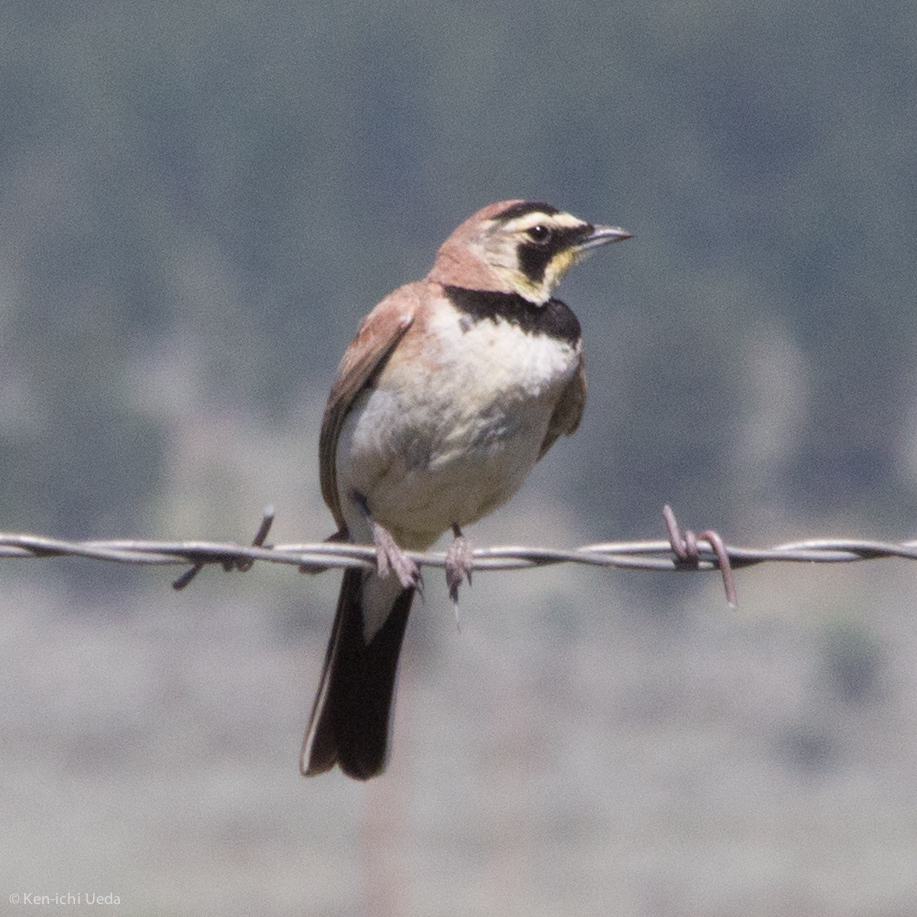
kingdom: Animalia
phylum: Chordata
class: Aves
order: Passeriformes
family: Alaudidae
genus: Eremophila
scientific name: Eremophila alpestris
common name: Horned lark
